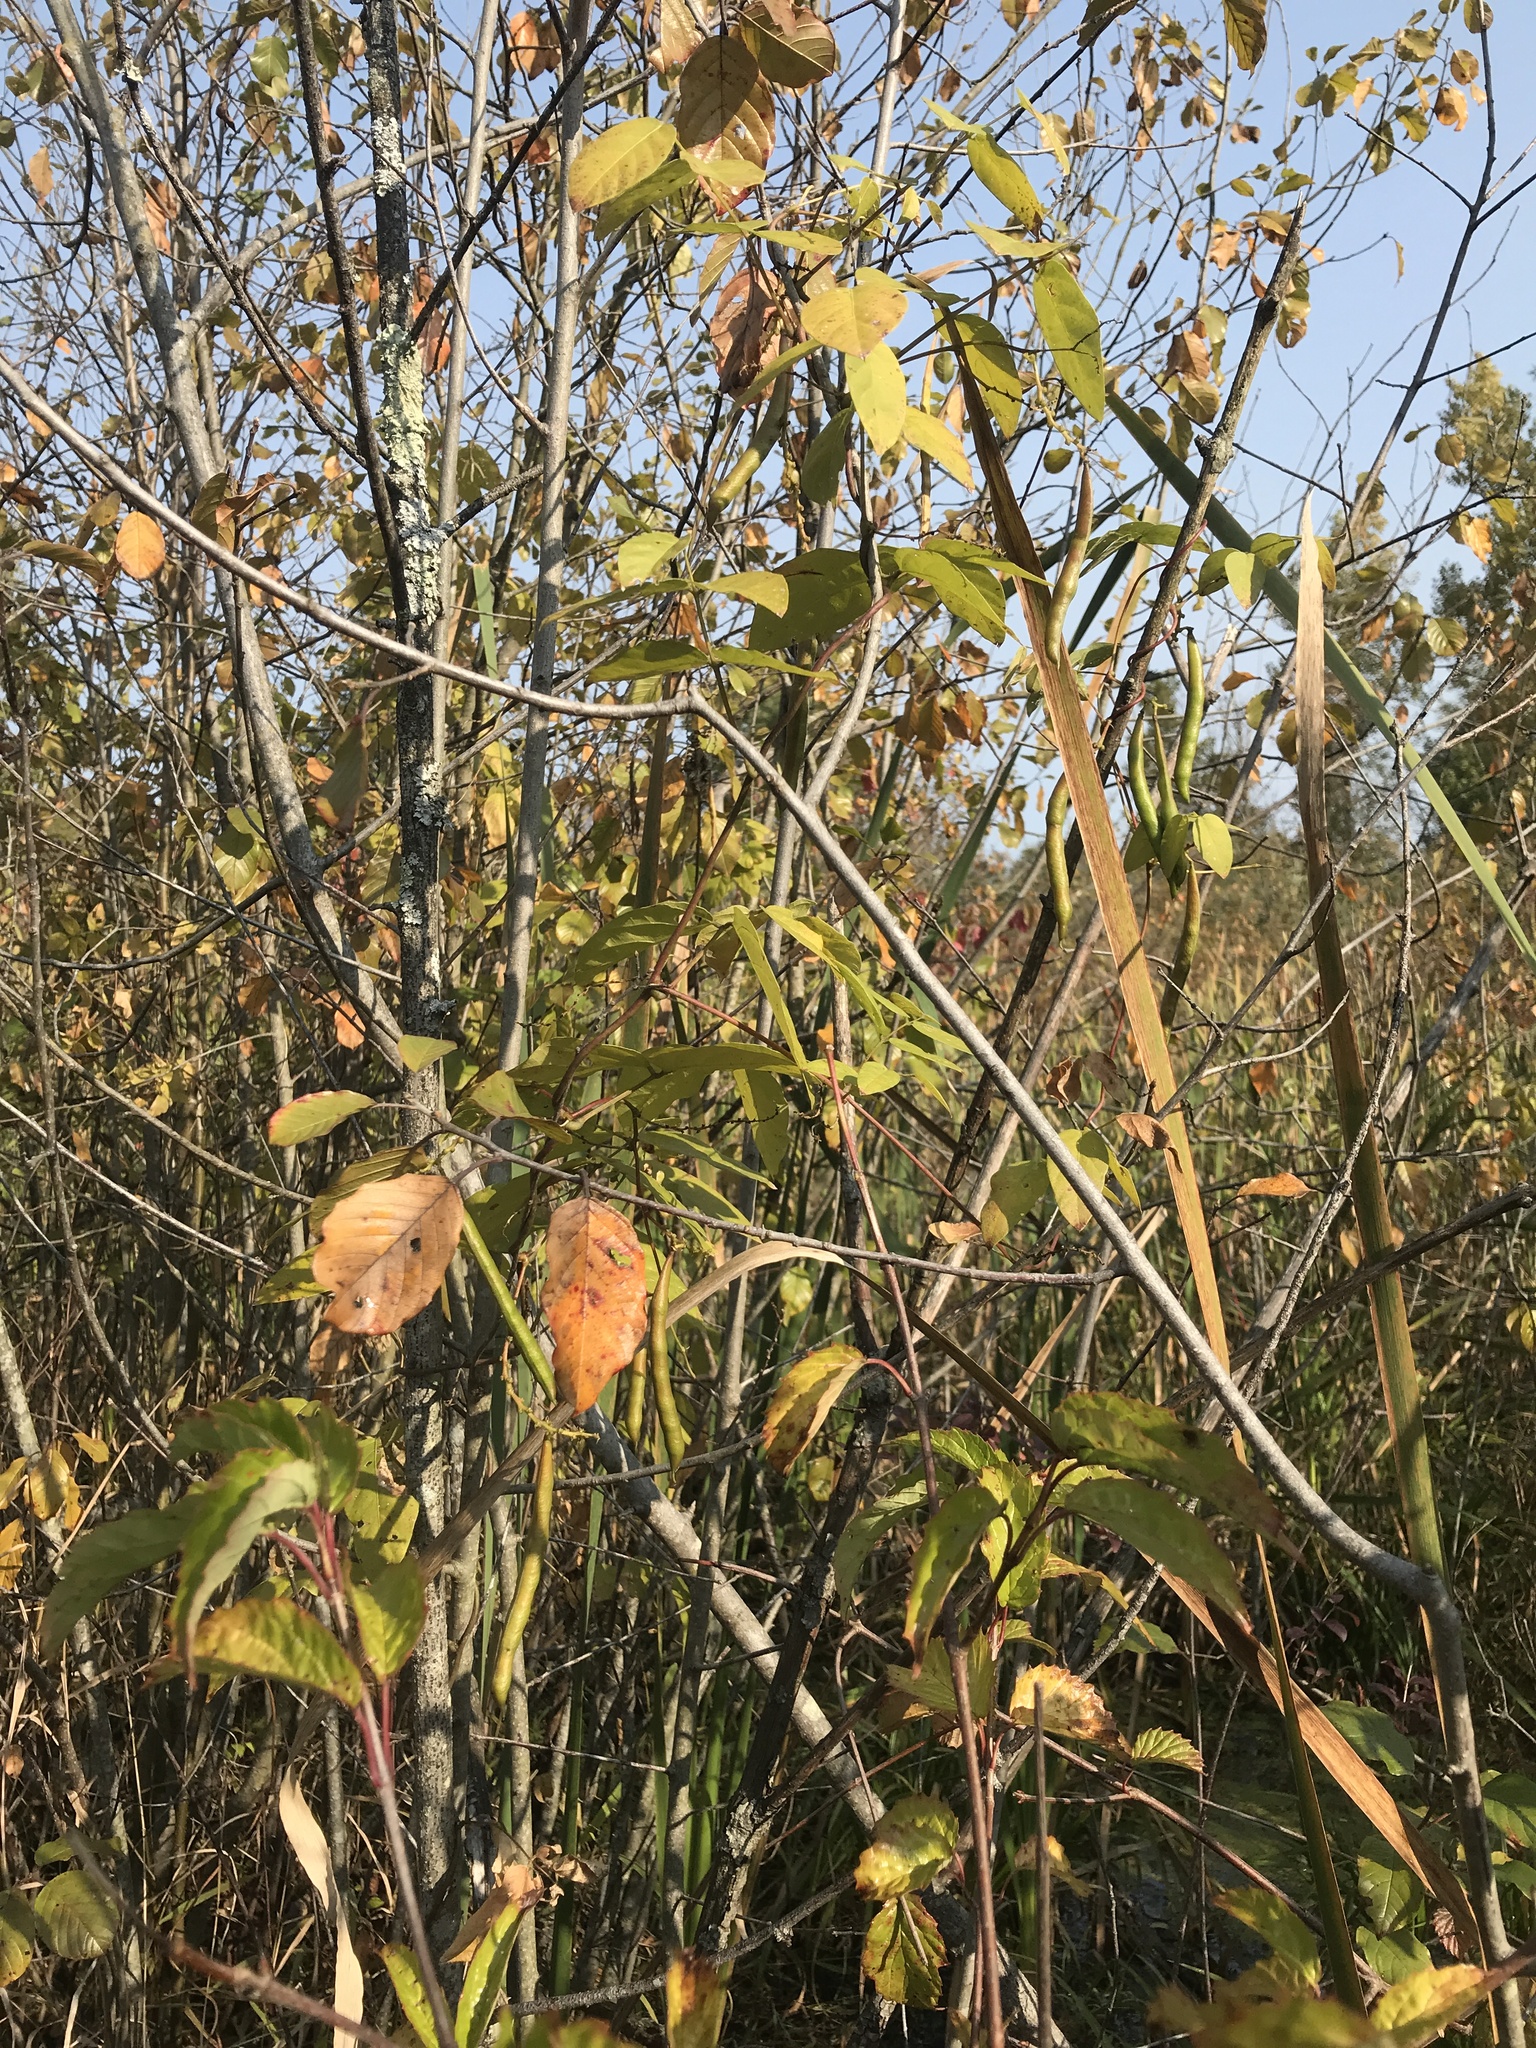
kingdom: Plantae
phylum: Tracheophyta
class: Magnoliopsida
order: Fabales
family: Fabaceae
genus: Apios
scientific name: Apios americana
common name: American potato-bean
